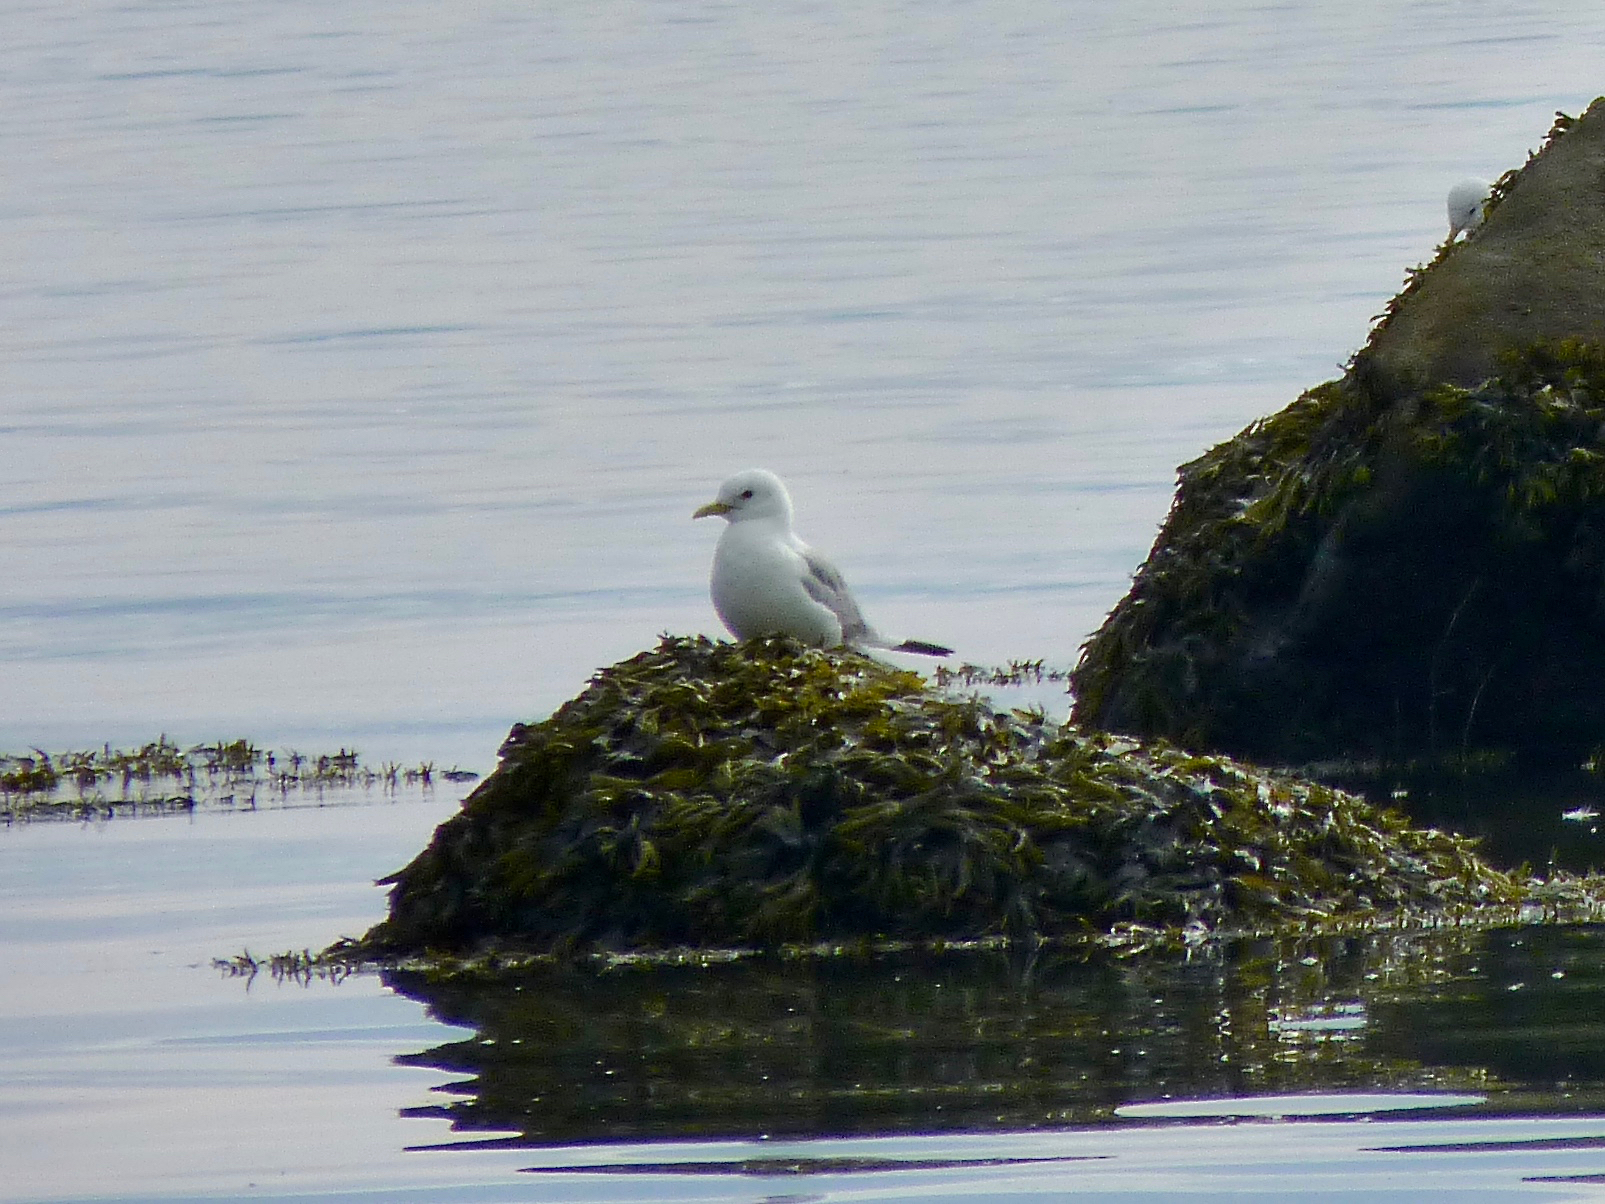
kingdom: Animalia
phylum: Chordata
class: Aves
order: Charadriiformes
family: Laridae
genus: Rissa
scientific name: Rissa tridactyla
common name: Black-legged kittiwake
